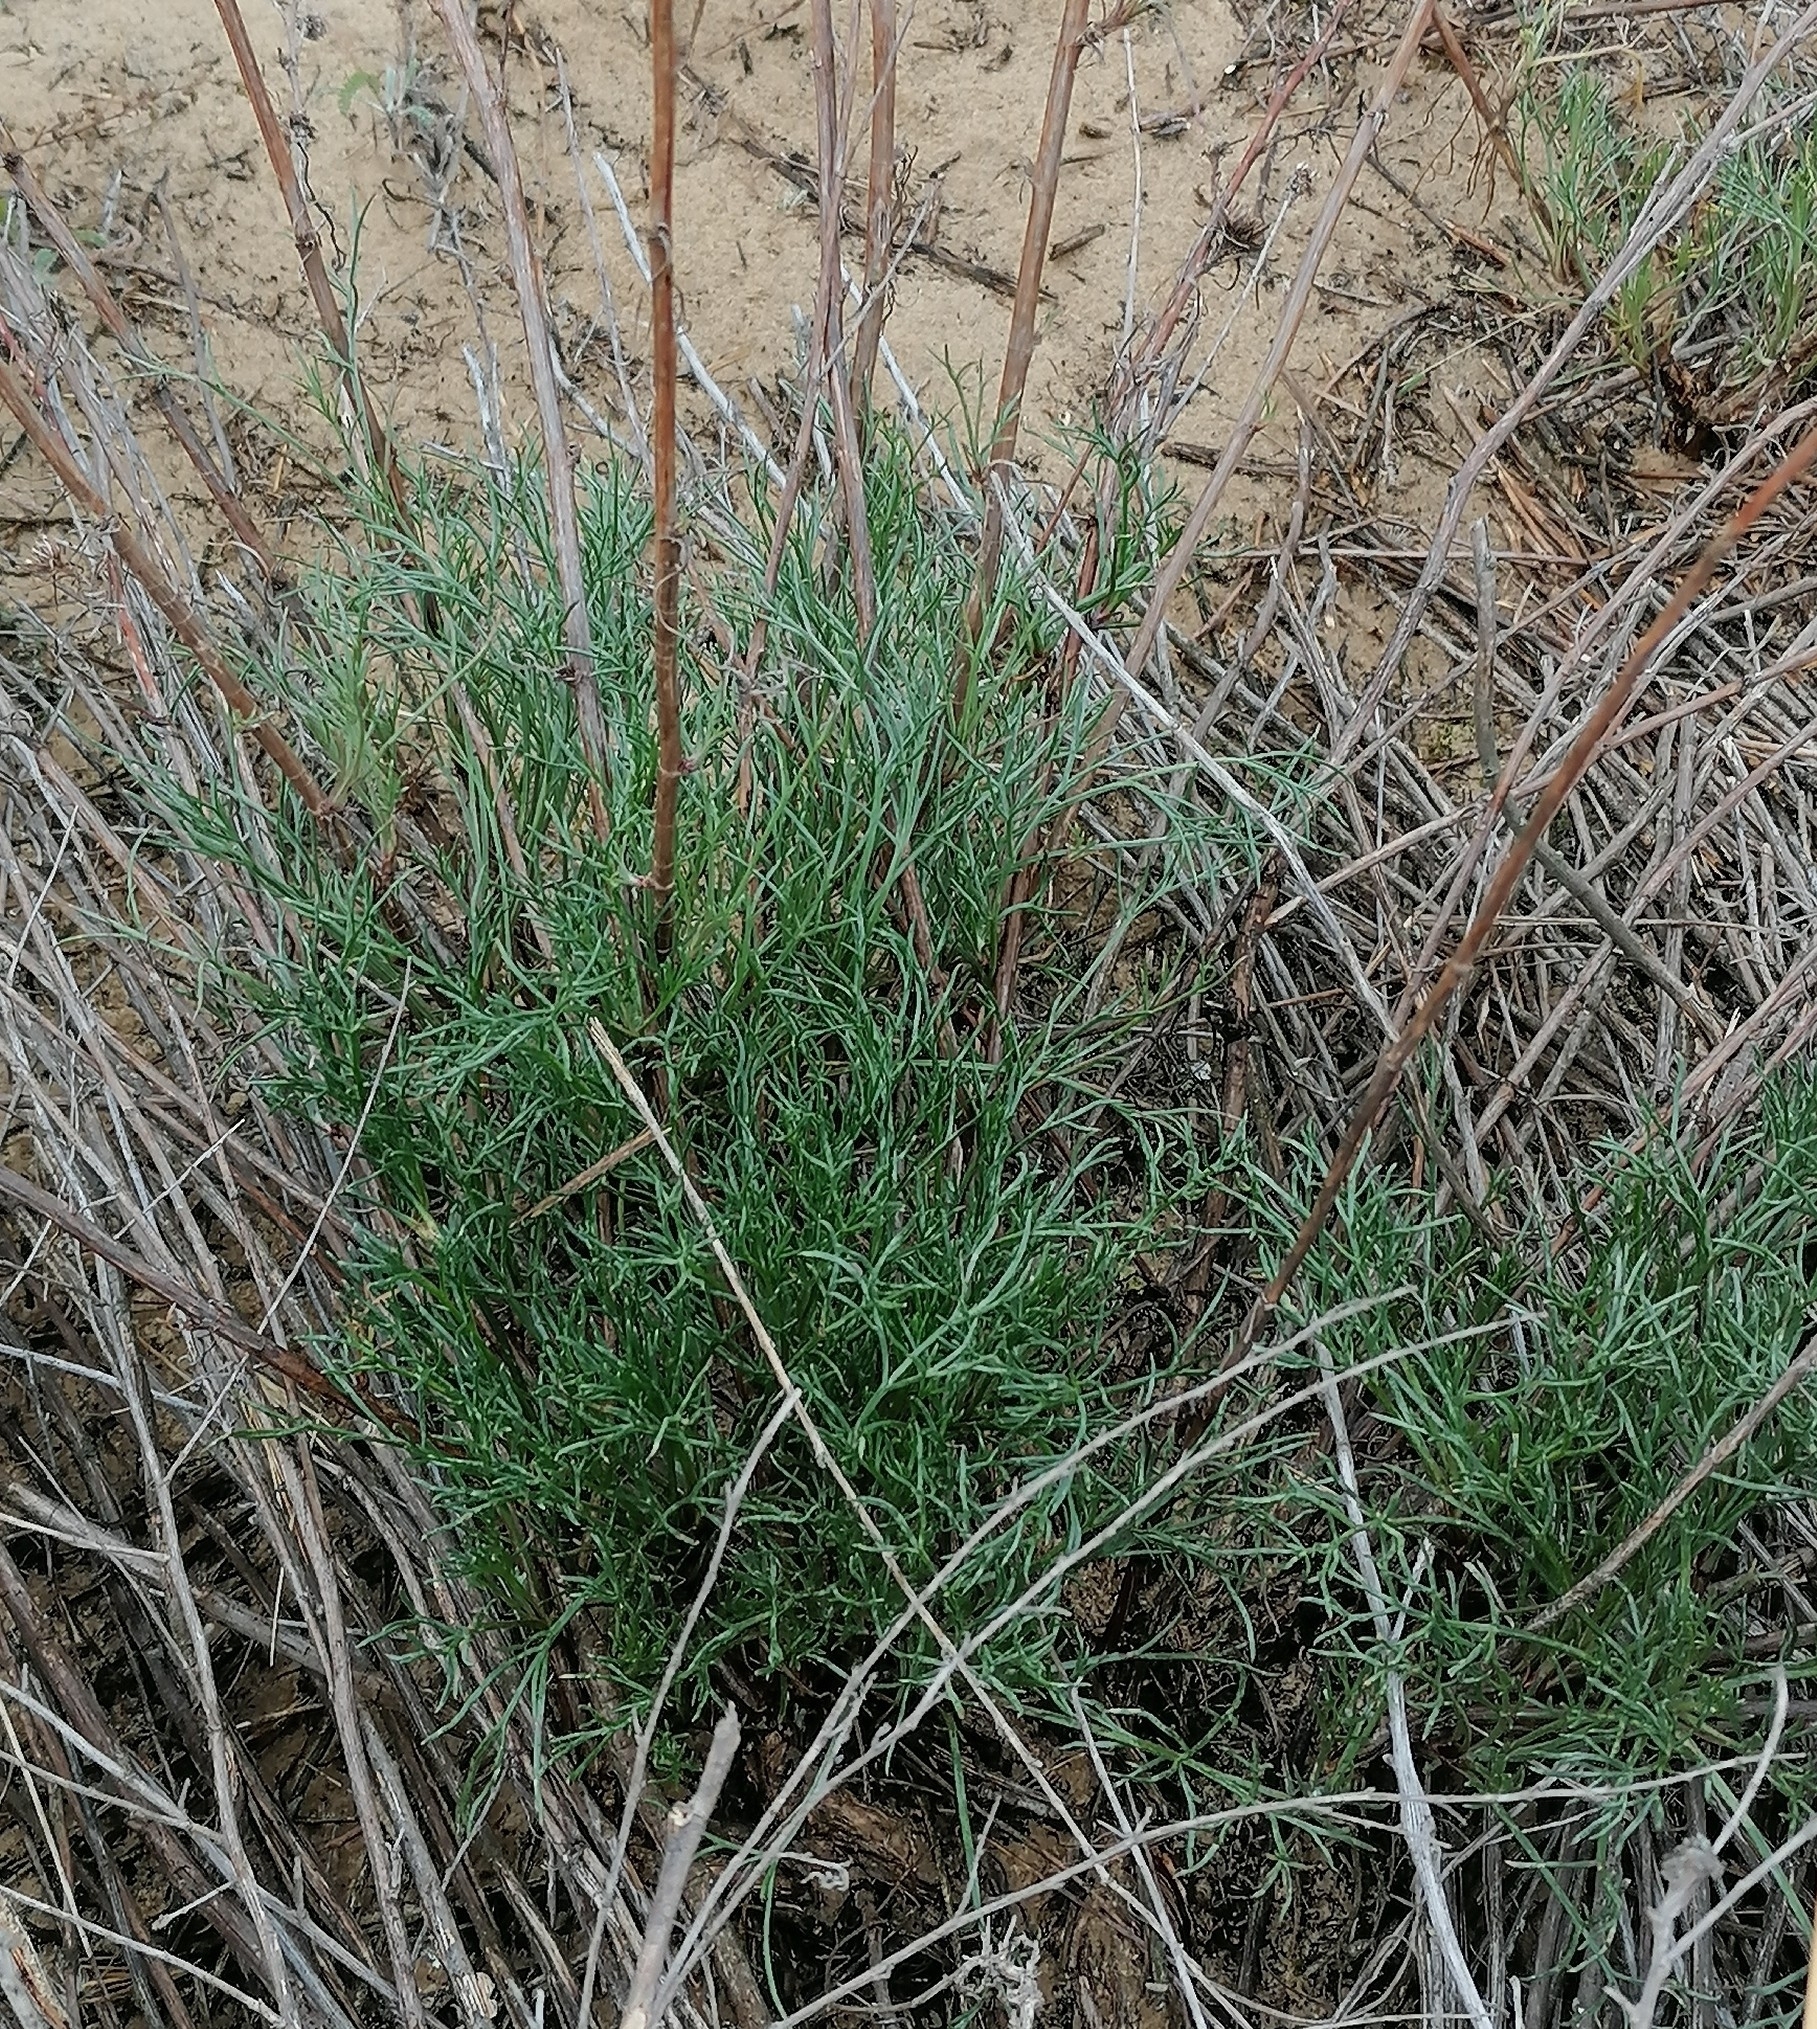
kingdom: Plantae
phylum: Tracheophyta
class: Magnoliopsida
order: Asterales
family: Asteraceae
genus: Artemisia
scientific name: Artemisia marschalliana
